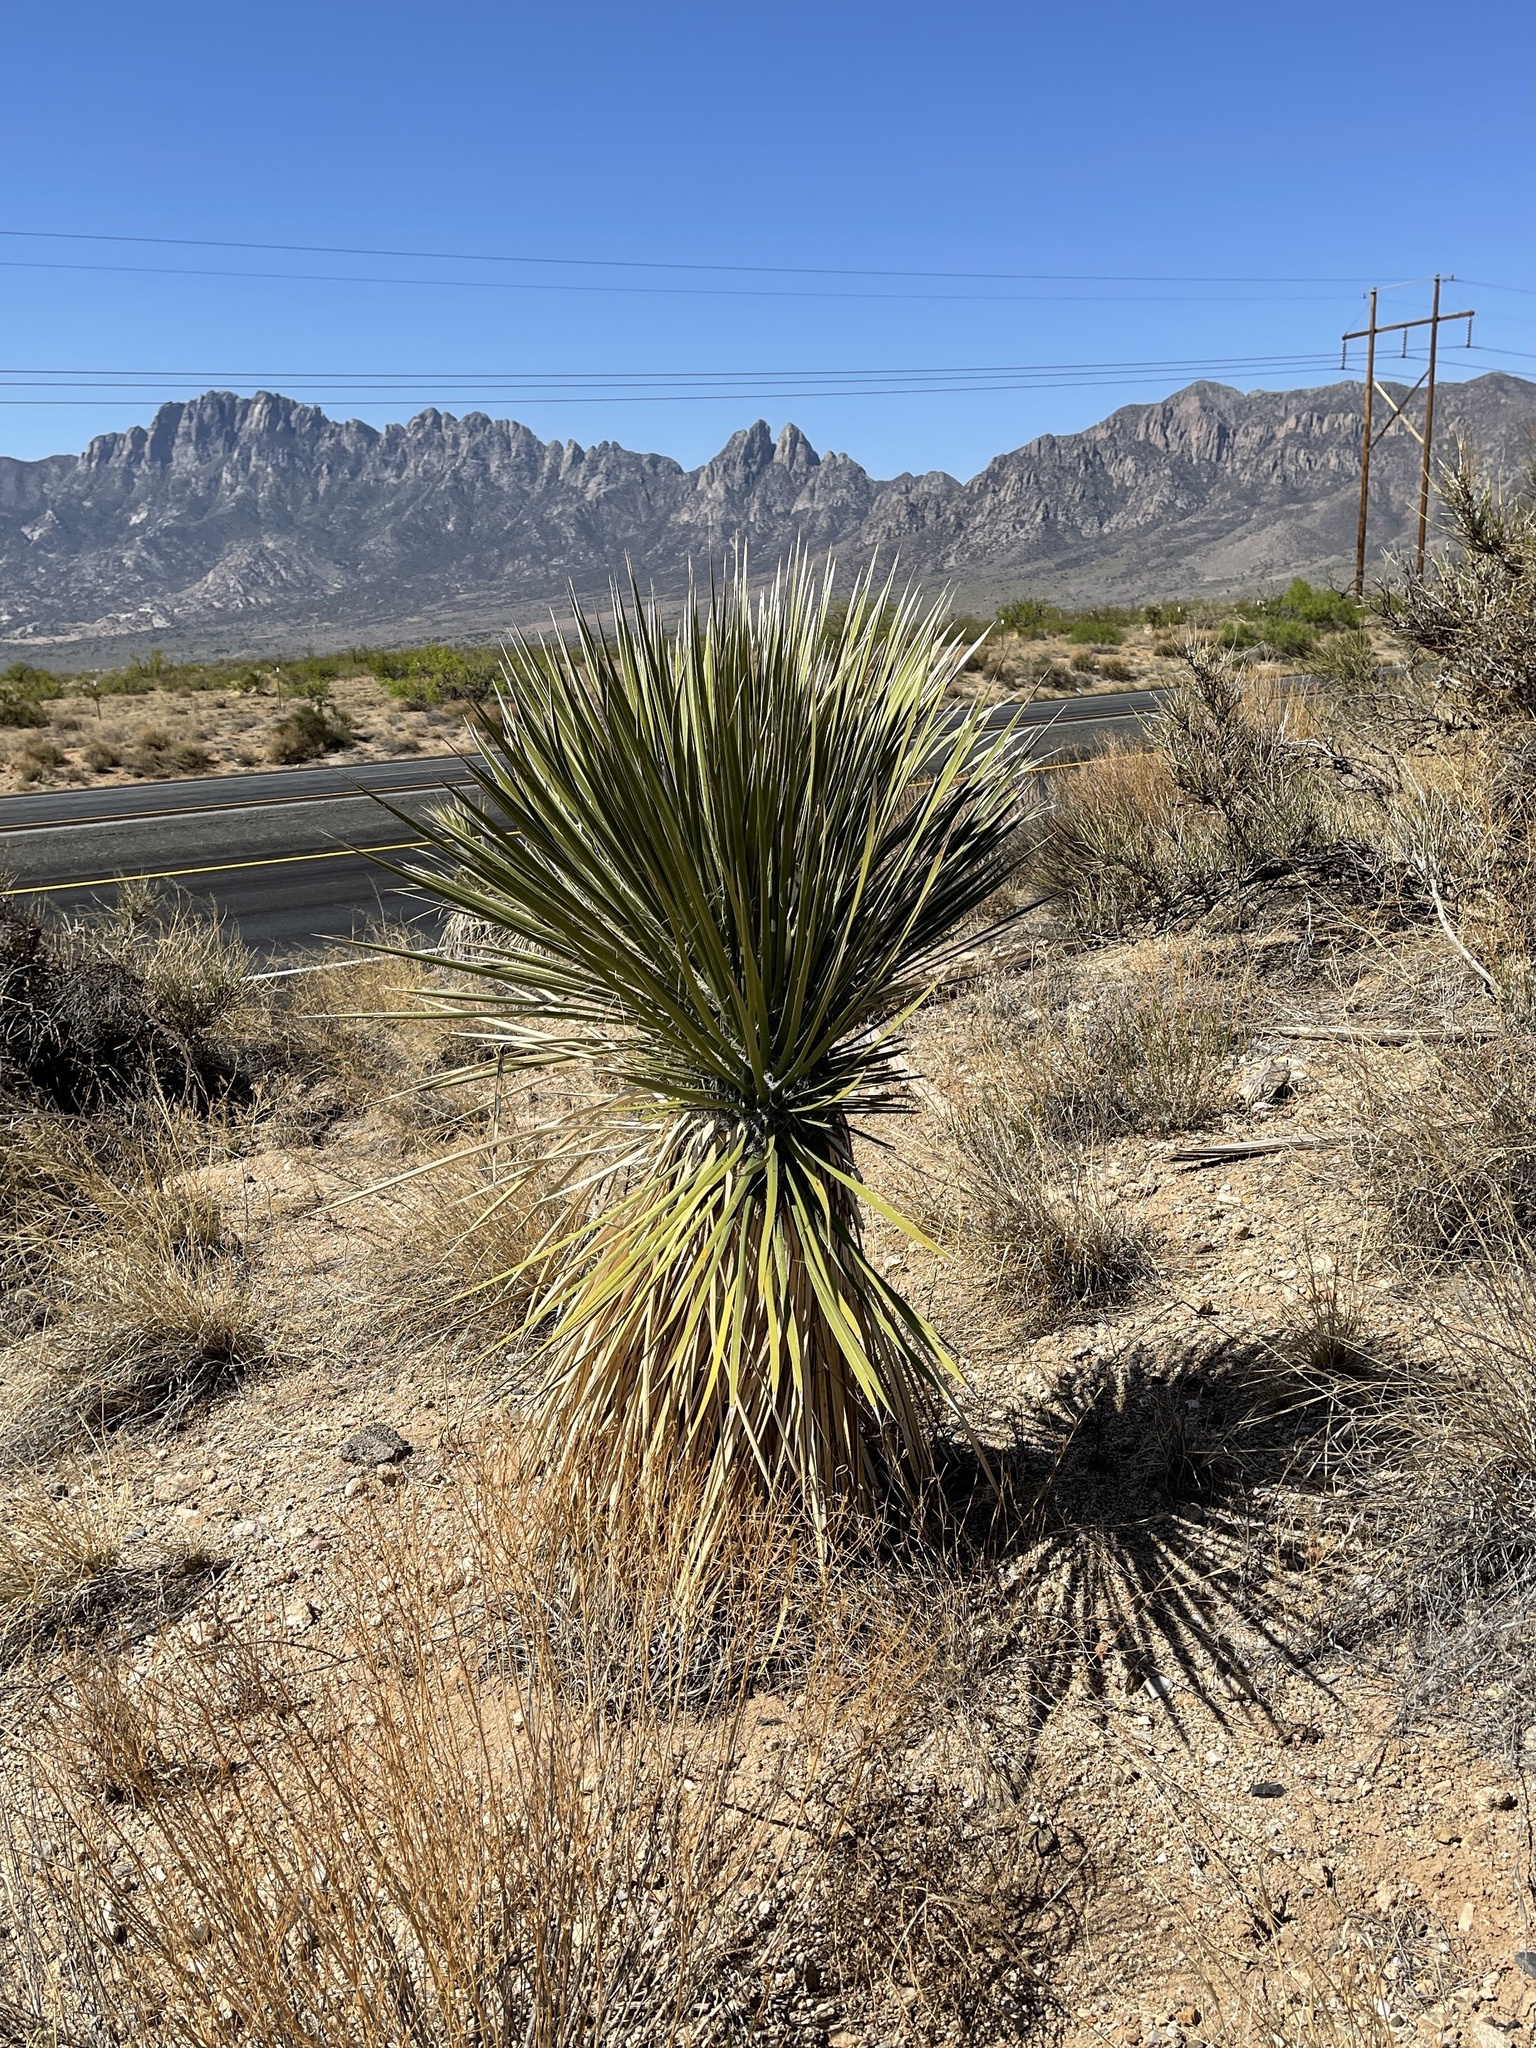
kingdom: Plantae
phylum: Tracheophyta
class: Liliopsida
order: Asparagales
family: Asparagaceae
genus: Yucca
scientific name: Yucca elata
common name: Palmella
